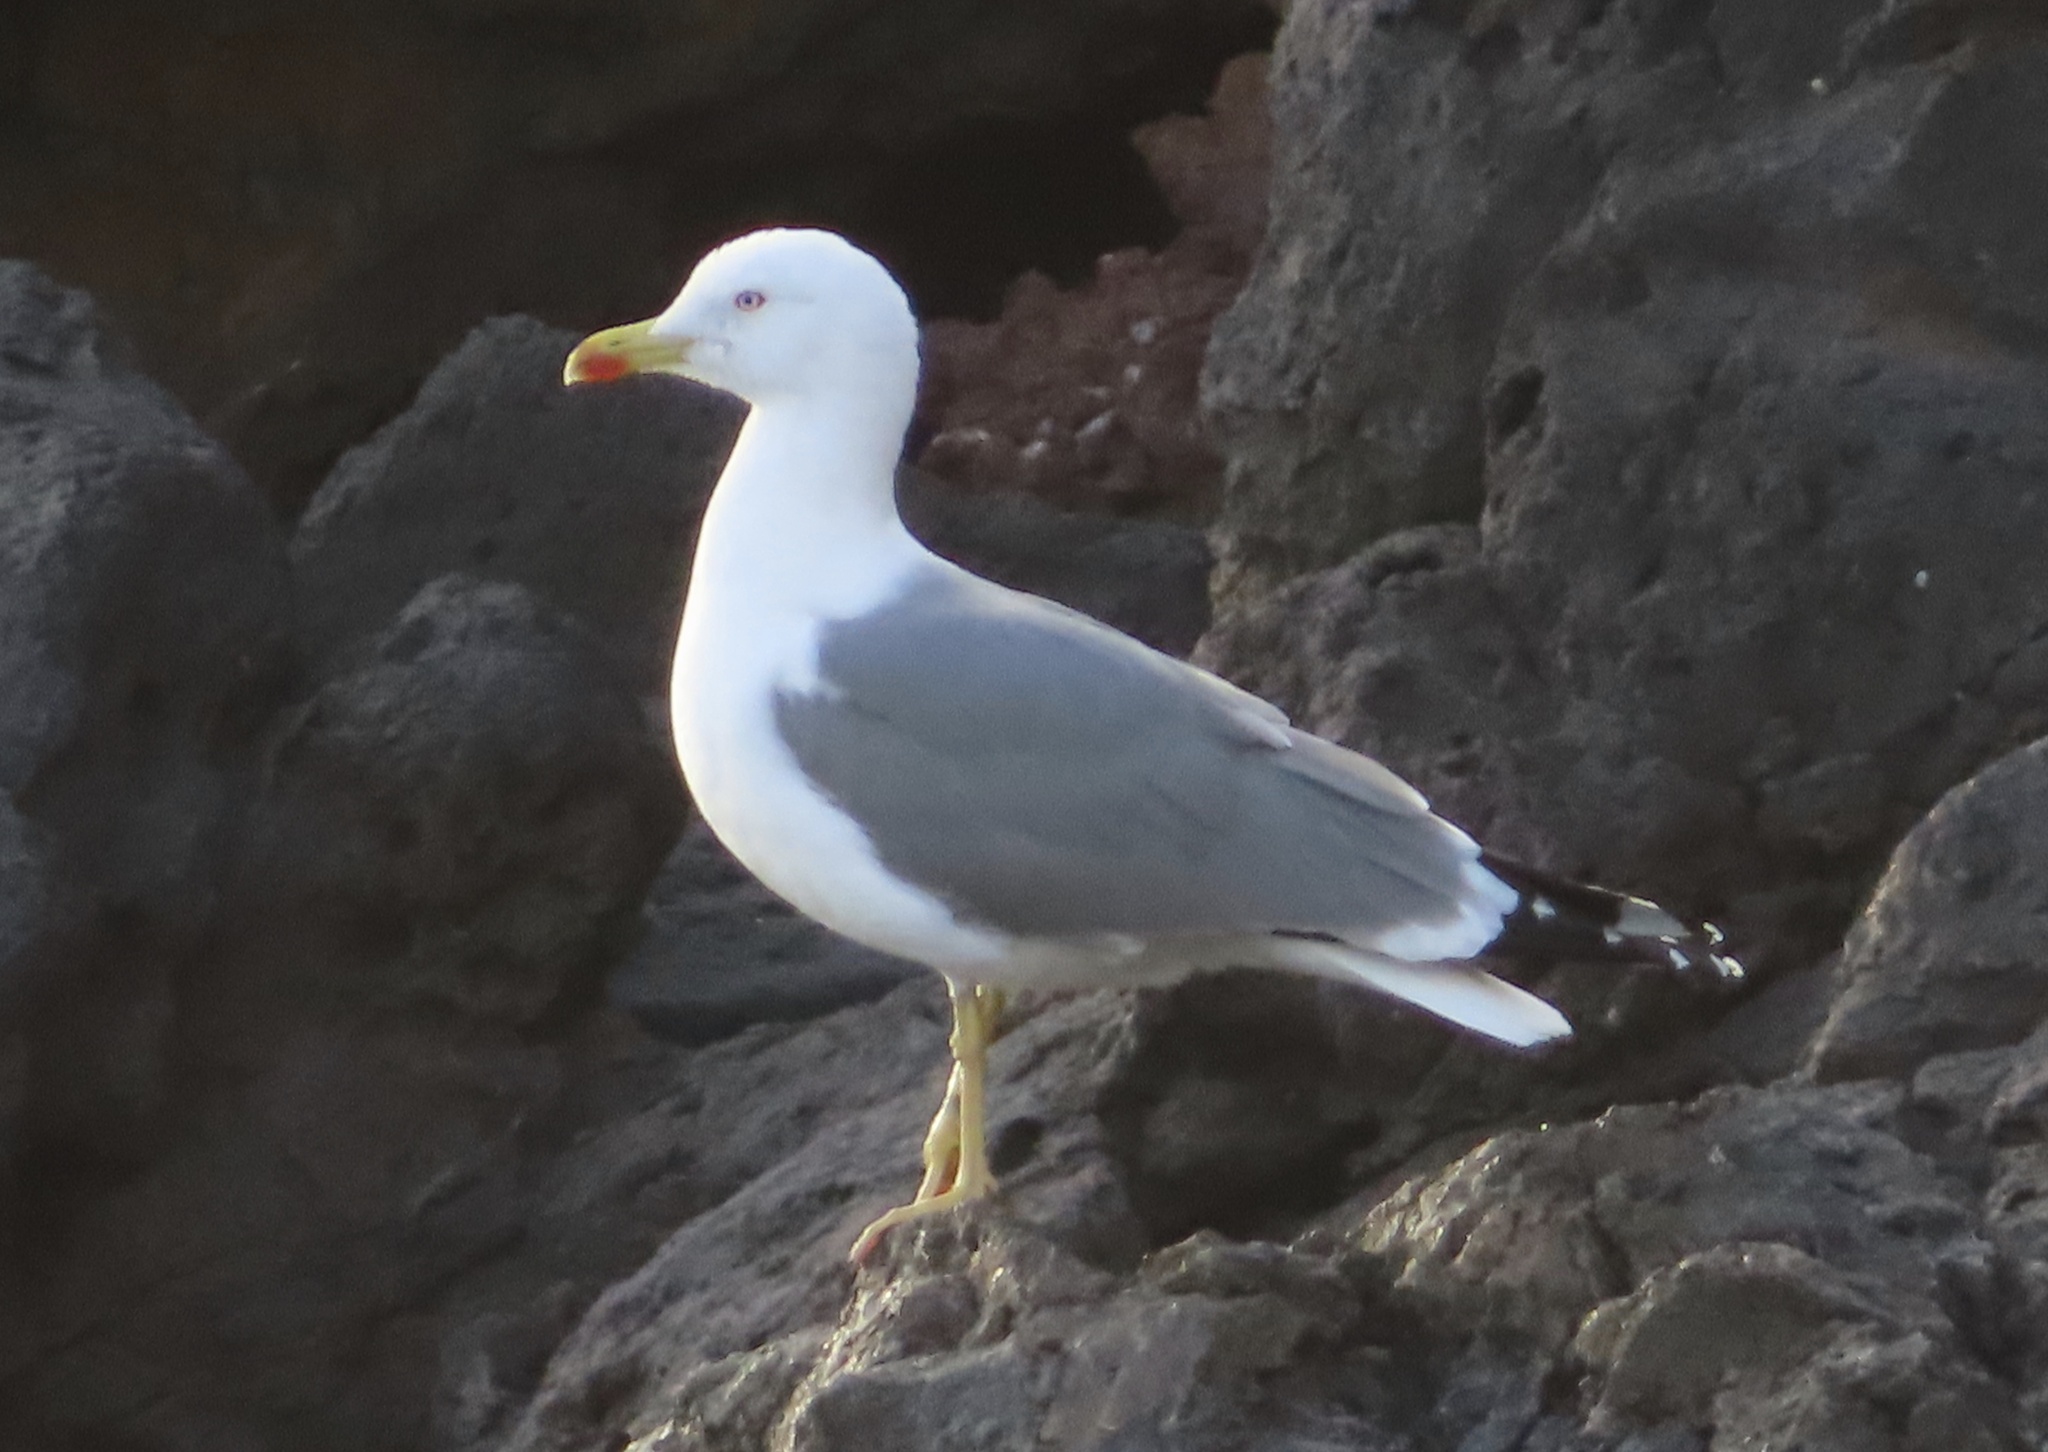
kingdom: Animalia
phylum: Chordata
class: Aves
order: Charadriiformes
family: Laridae
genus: Larus
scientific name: Larus michahellis
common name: Yellow-legged gull
